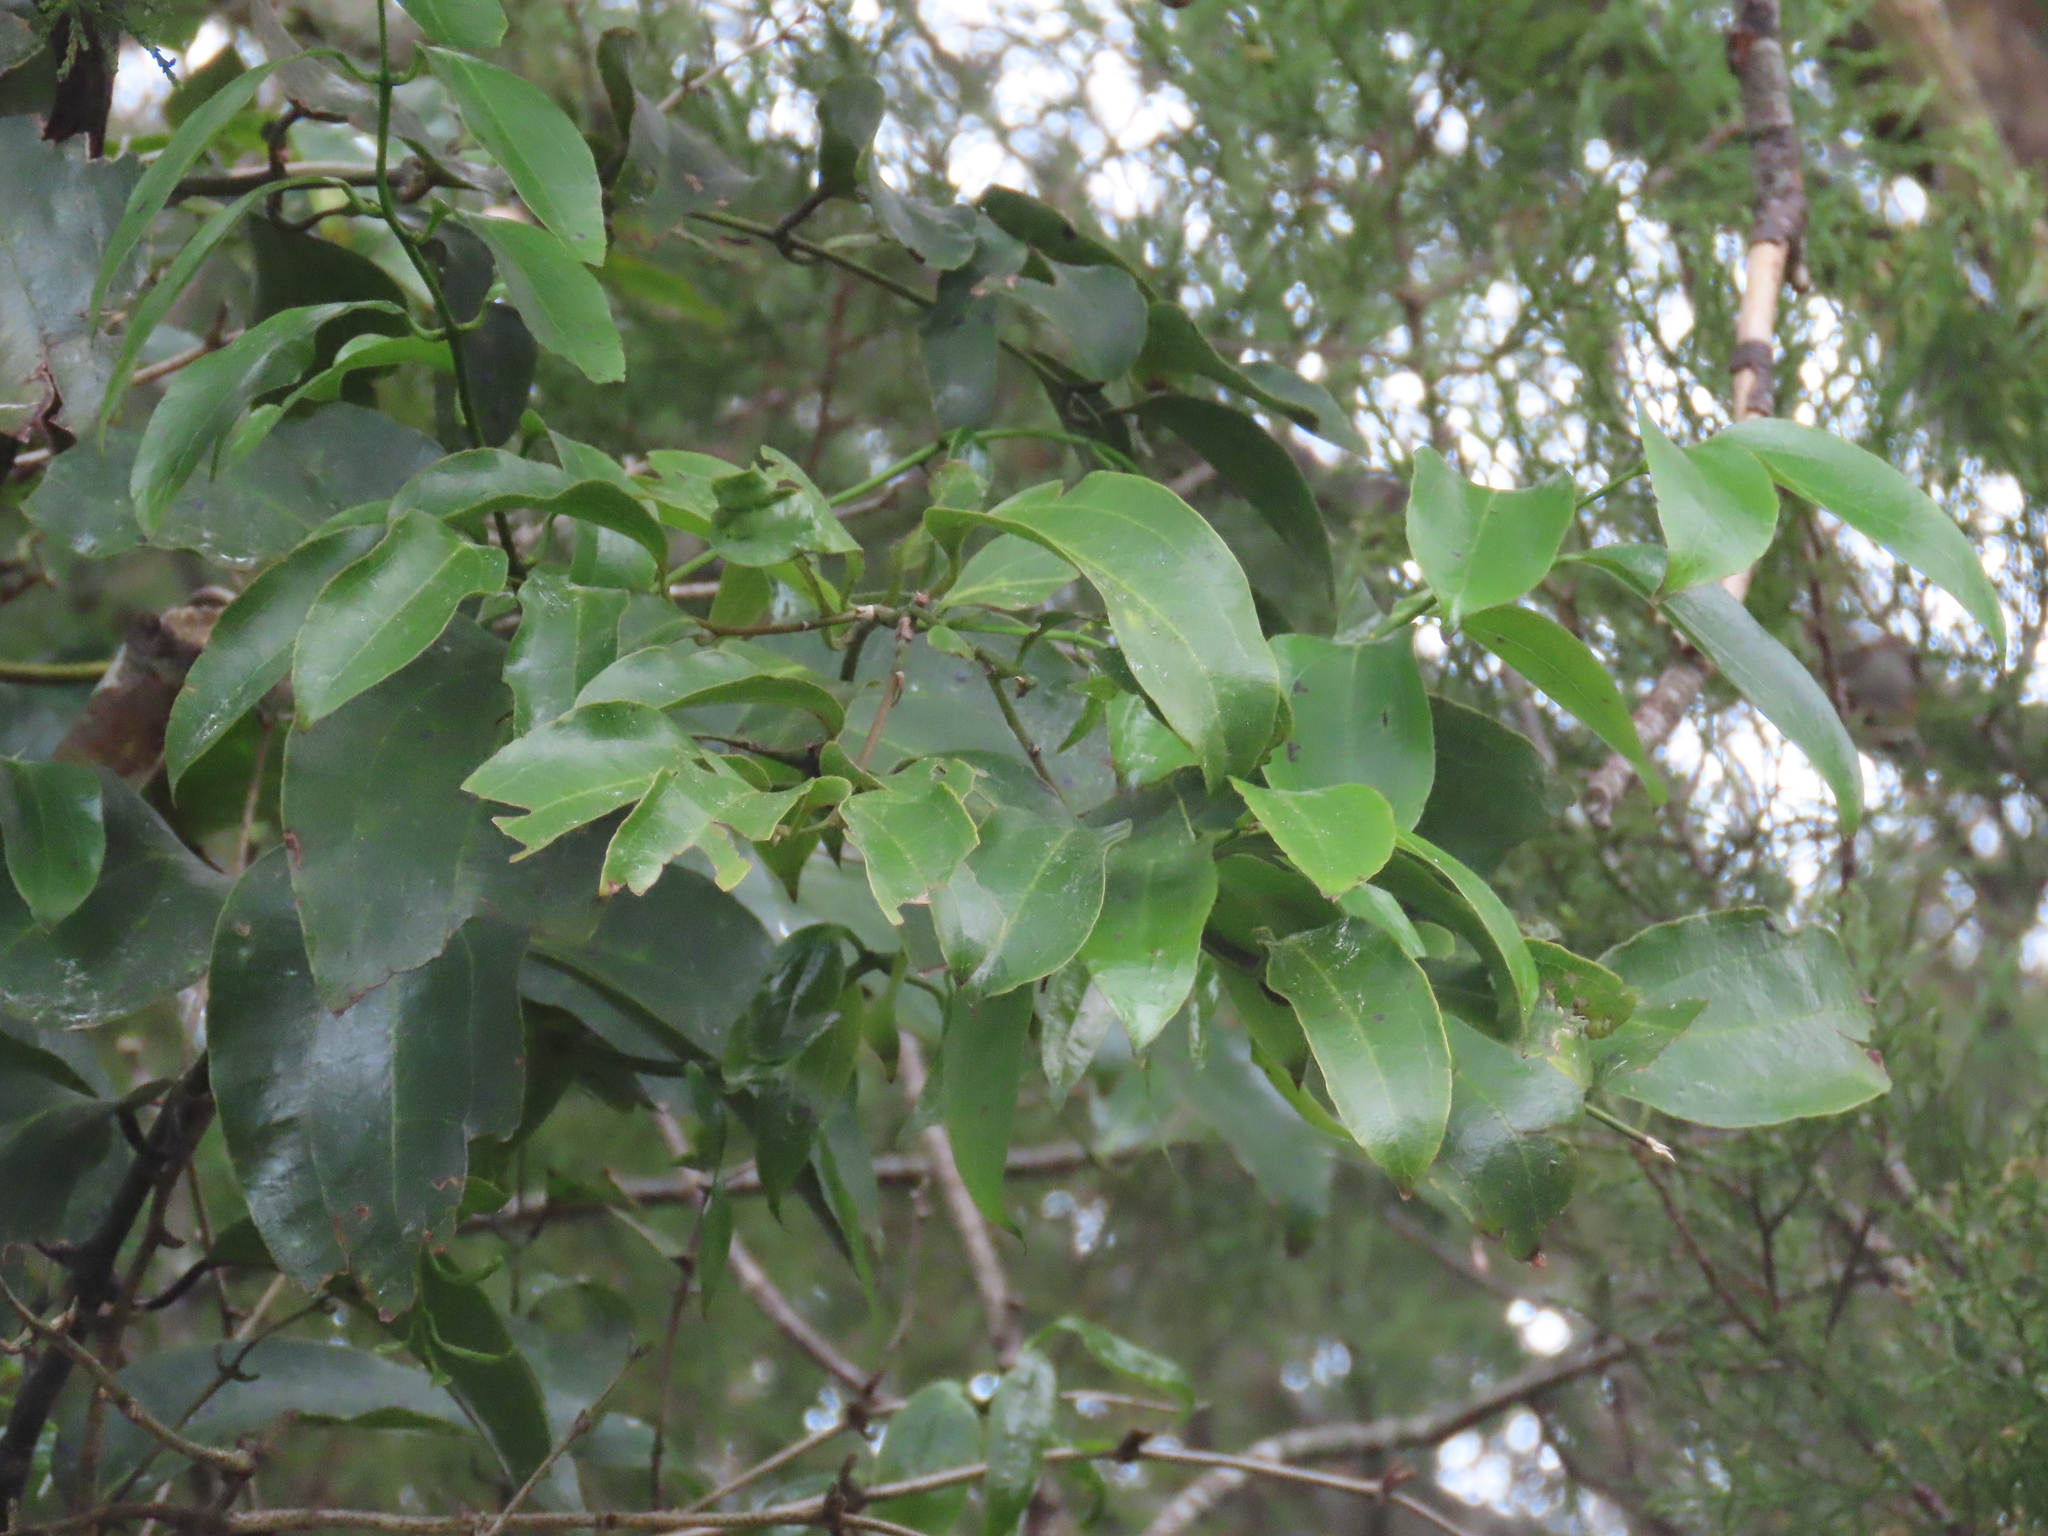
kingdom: Plantae
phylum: Tracheophyta
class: Liliopsida
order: Liliales
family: Ripogonaceae
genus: Ripogonum
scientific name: Ripogonum scandens
